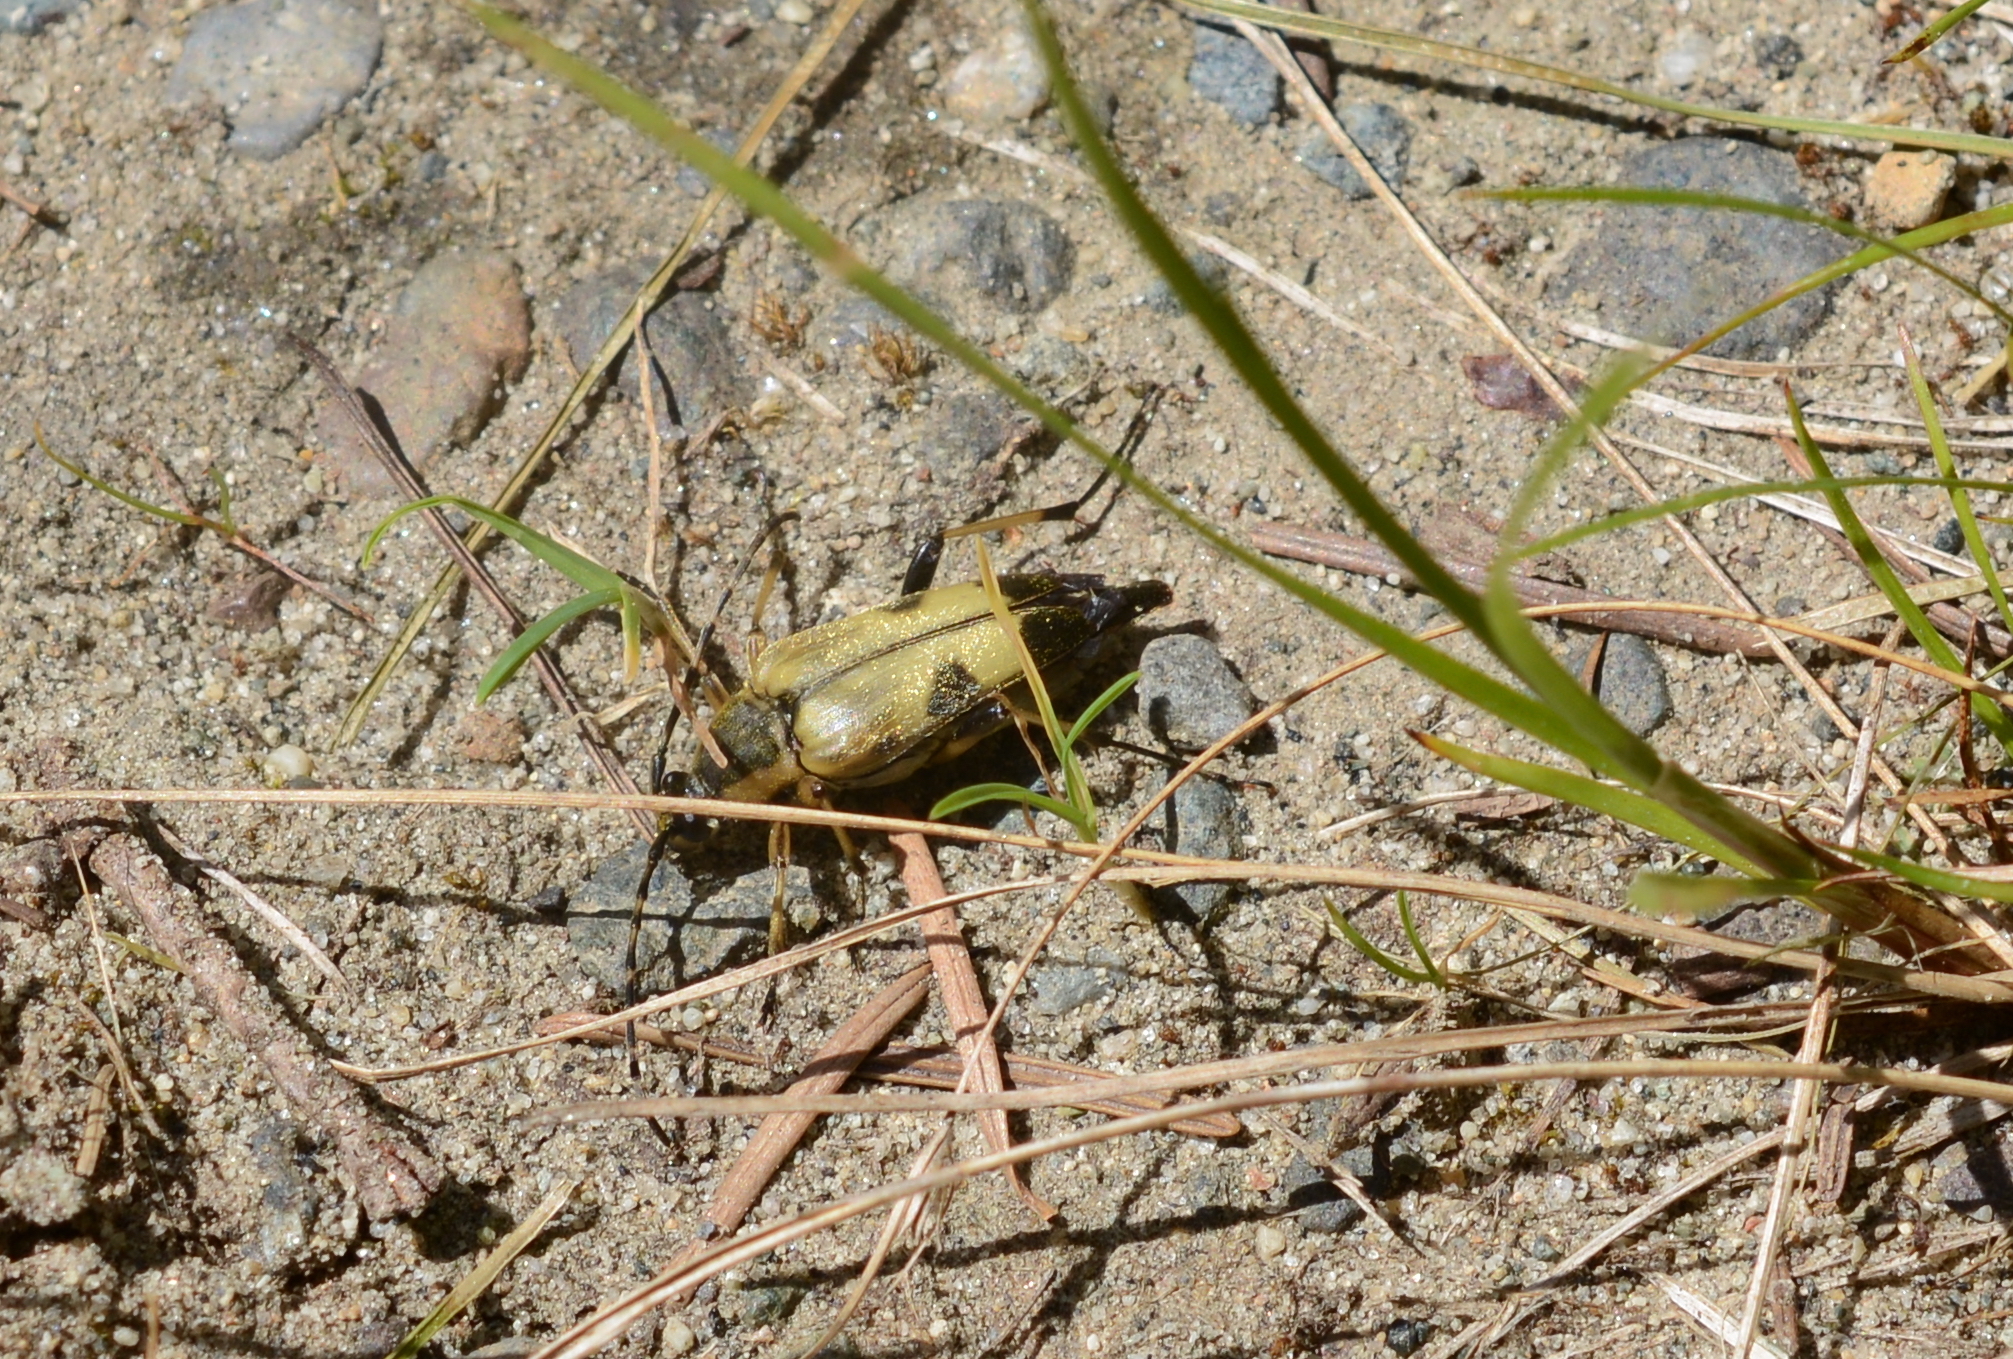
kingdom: Animalia
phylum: Arthropoda
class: Insecta
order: Coleoptera
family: Cerambycidae
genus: Etorofus
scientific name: Etorofus obliteratus
